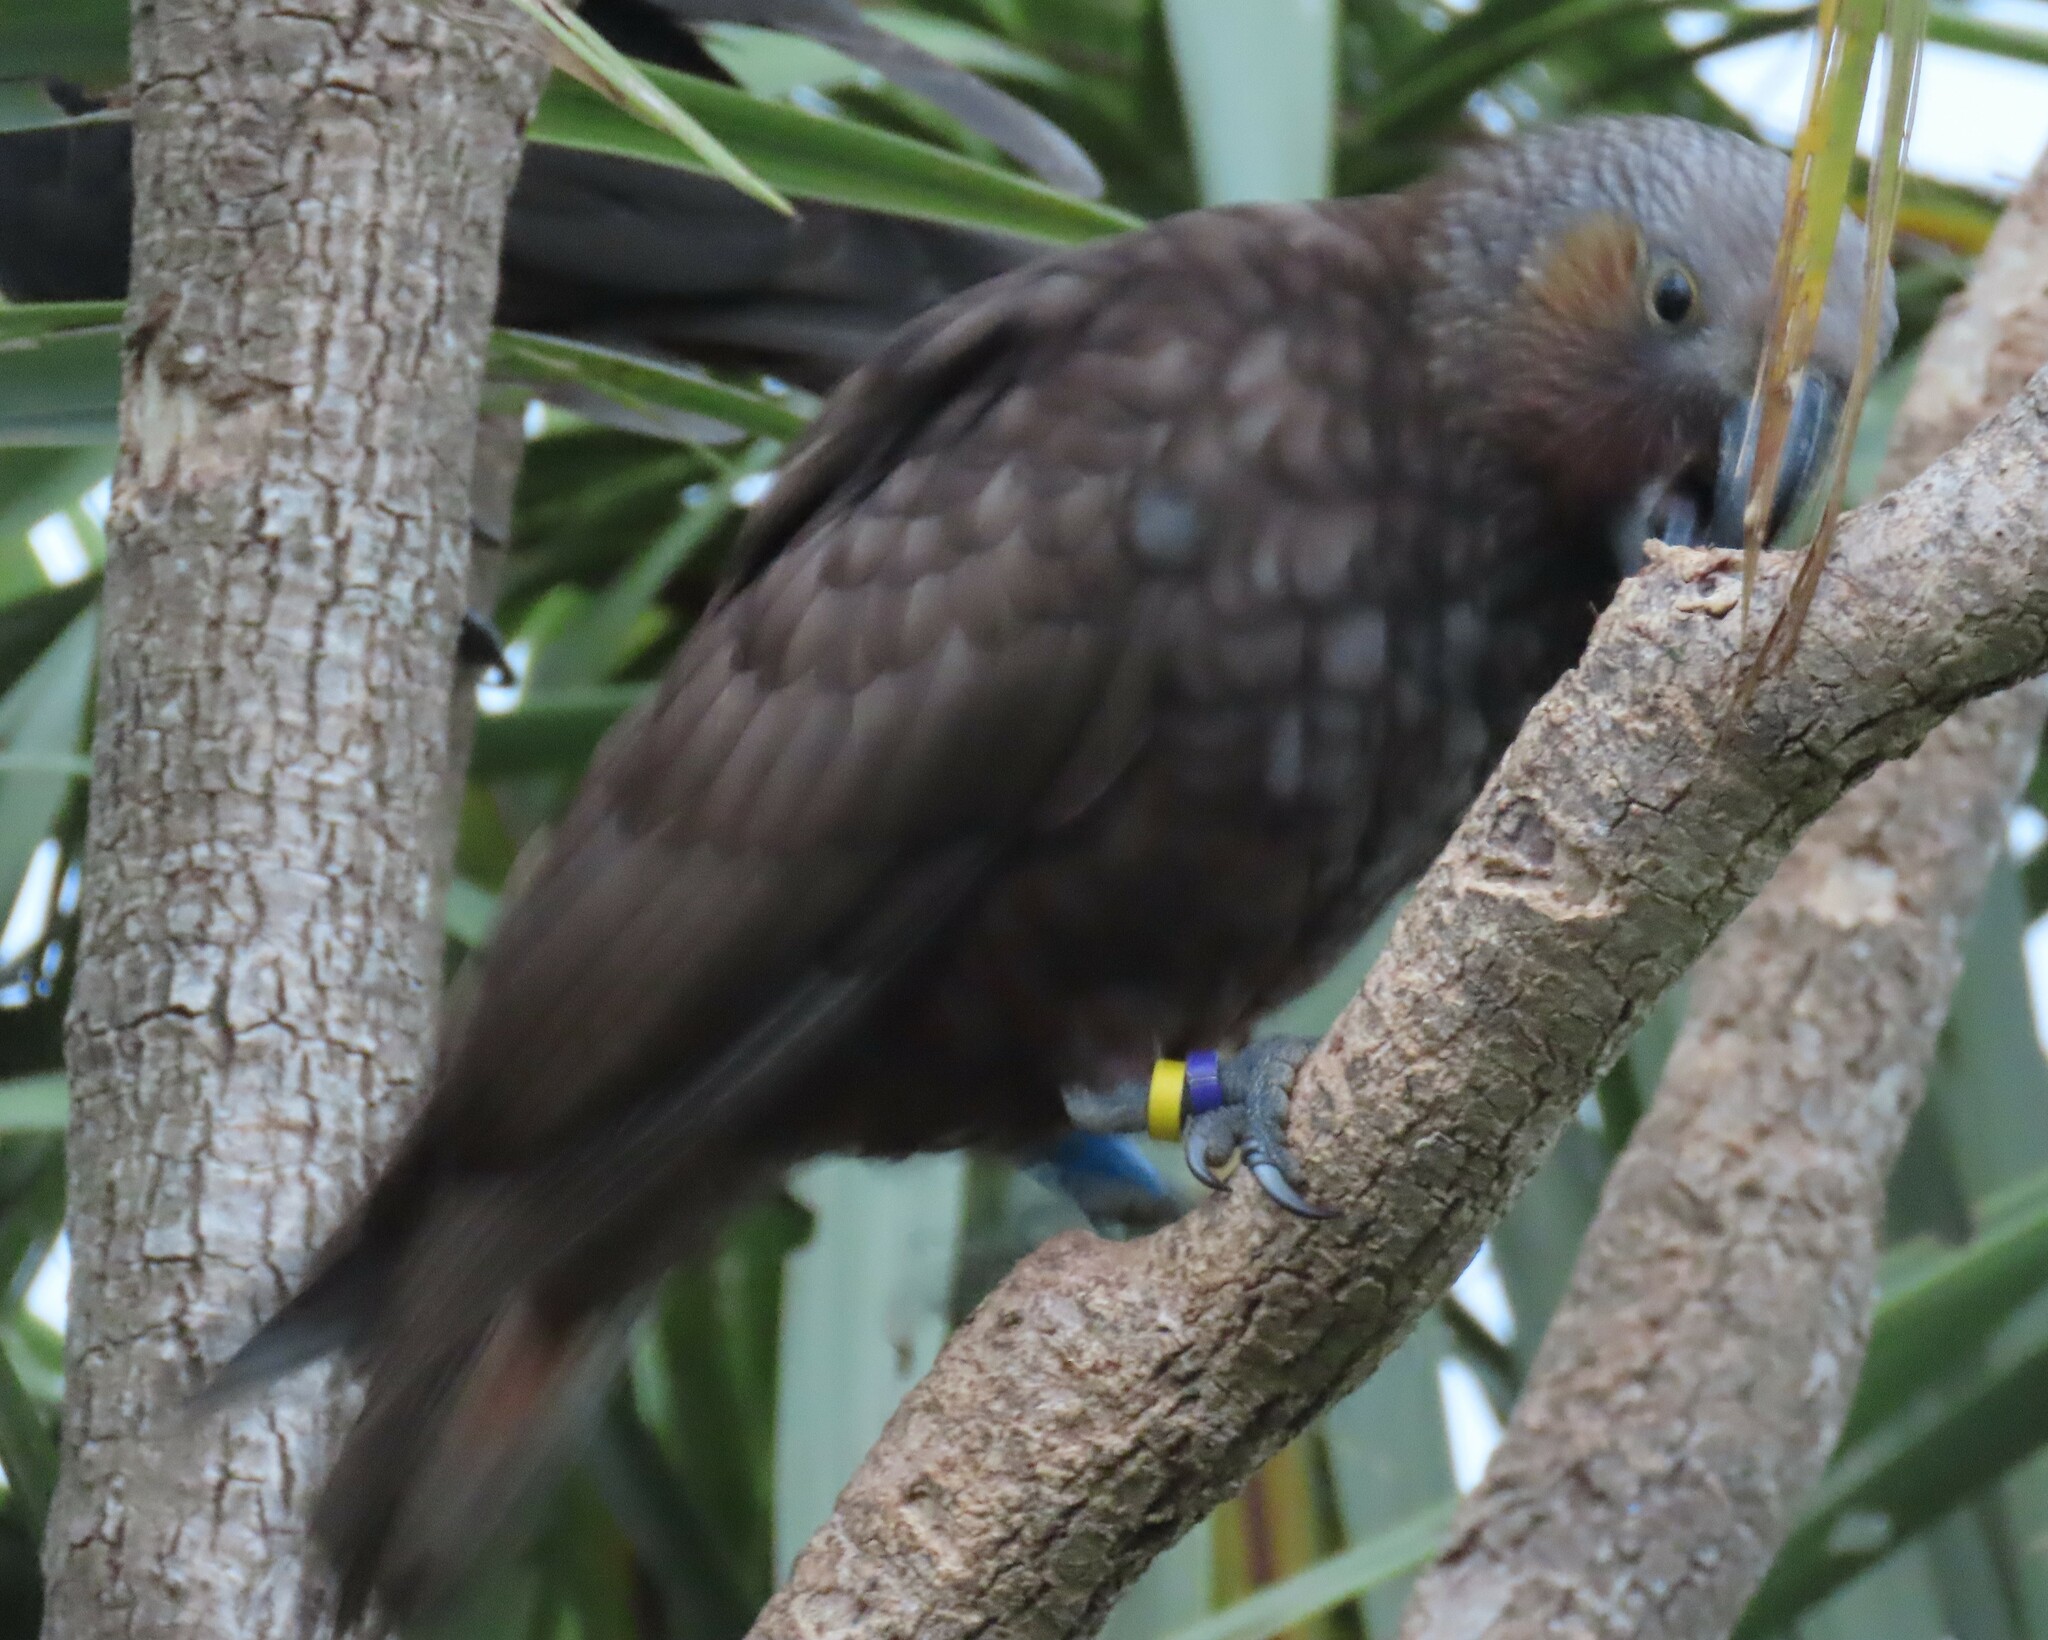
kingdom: Animalia
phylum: Chordata
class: Aves
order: Psittaciformes
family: Psittacidae
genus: Nestor
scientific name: Nestor meridionalis
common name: New zealand kaka
